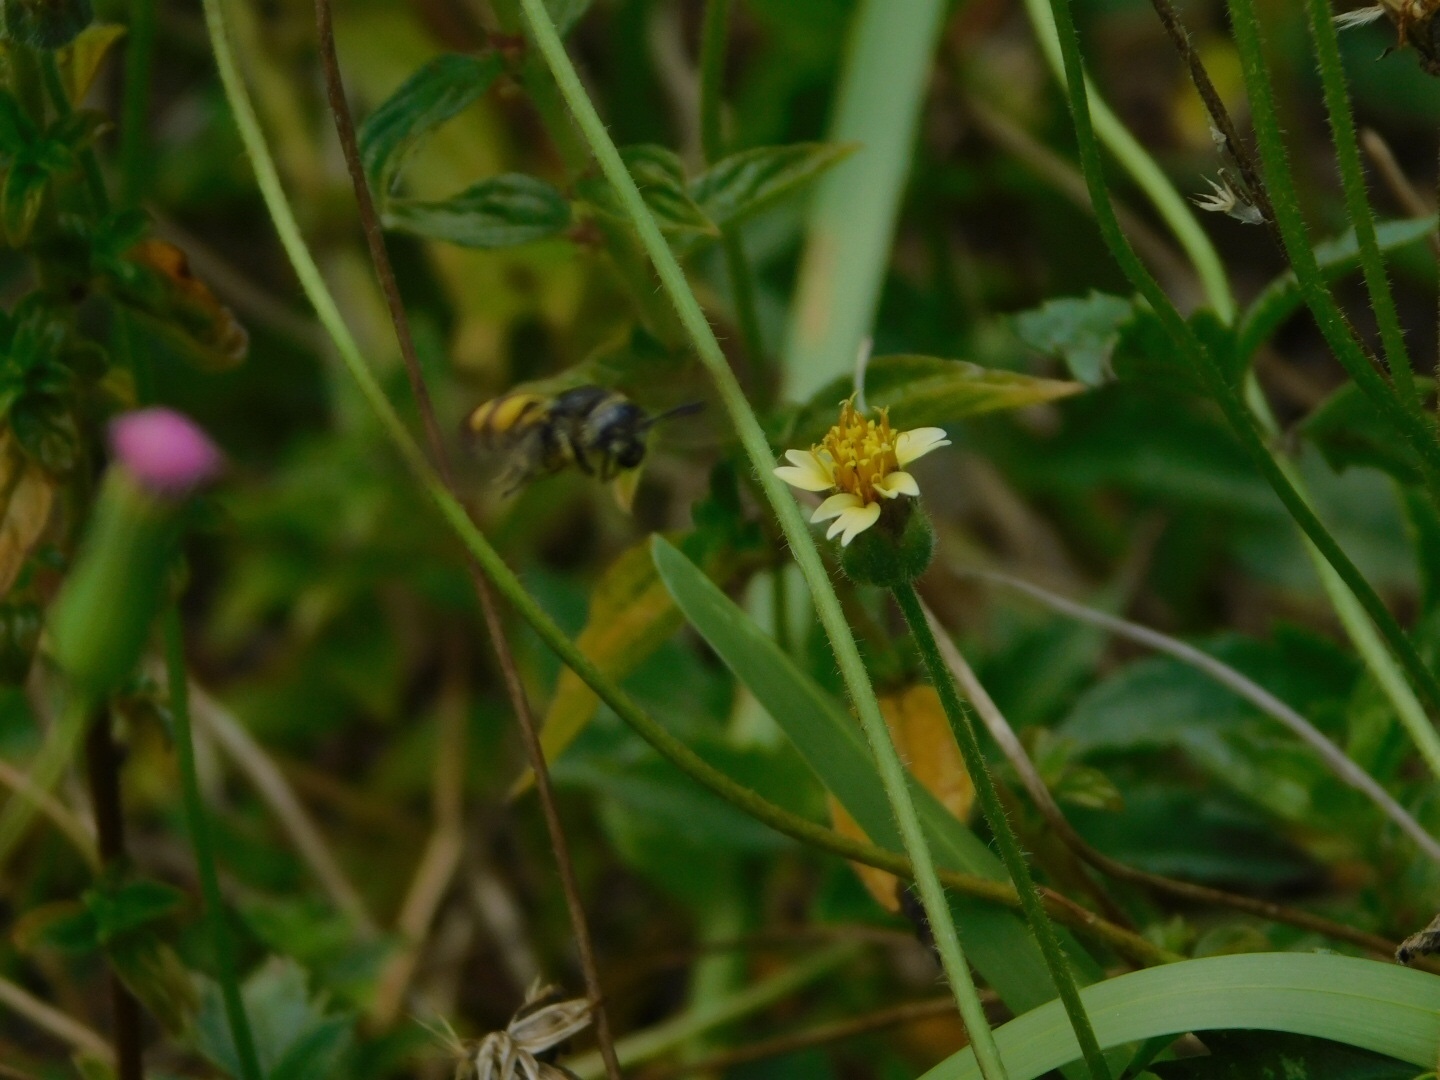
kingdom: Animalia
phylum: Arthropoda
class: Insecta
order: Hymenoptera
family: Scoliidae
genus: Dielis
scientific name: Dielis
